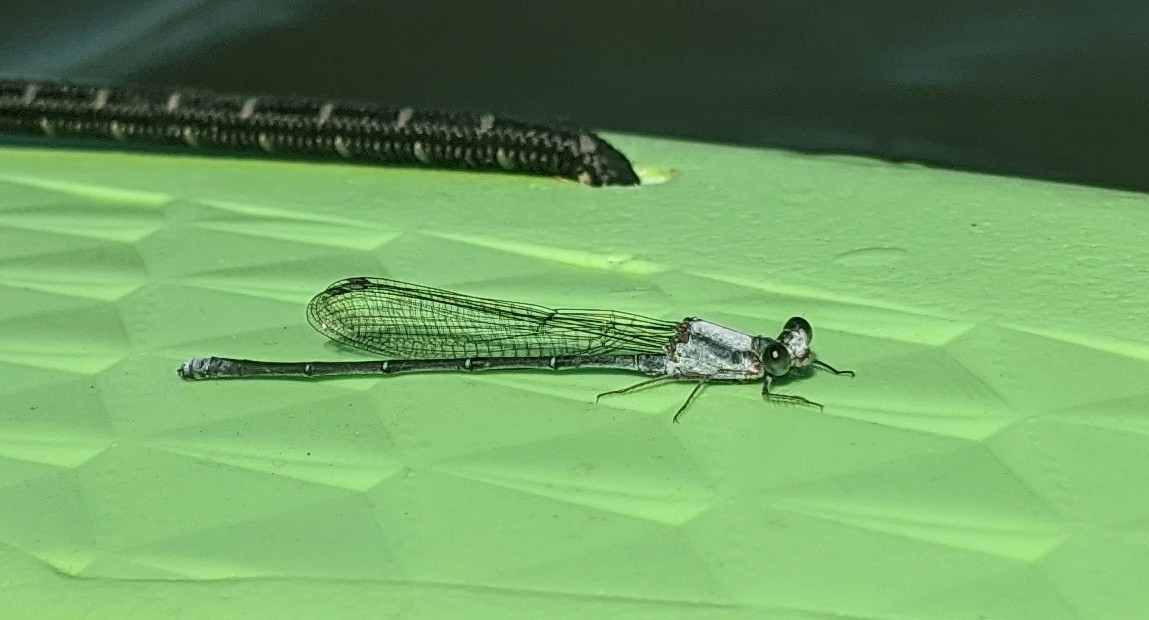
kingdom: Animalia
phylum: Arthropoda
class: Insecta
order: Odonata
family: Coenagrionidae
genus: Argia
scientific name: Argia moesta
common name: Powdered dancer
